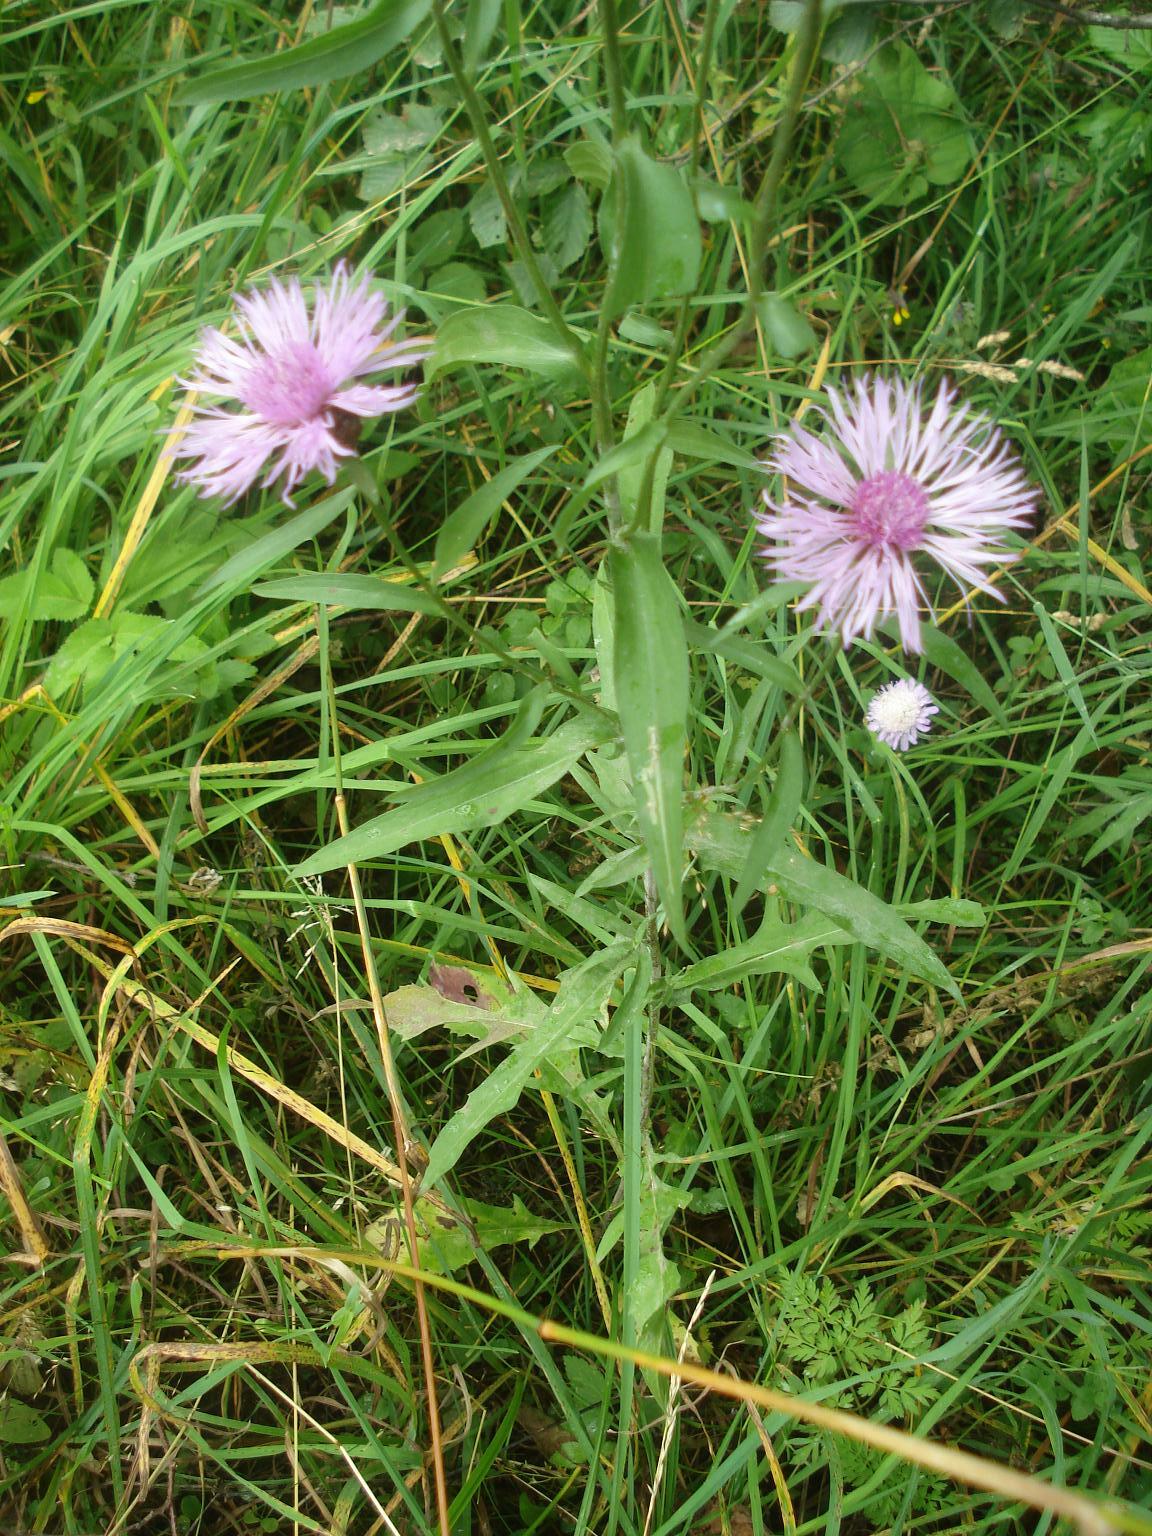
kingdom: Plantae
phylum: Tracheophyta
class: Magnoliopsida
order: Asterales
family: Asteraceae
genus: Centaurea
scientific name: Centaurea jacea
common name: Brown knapweed
